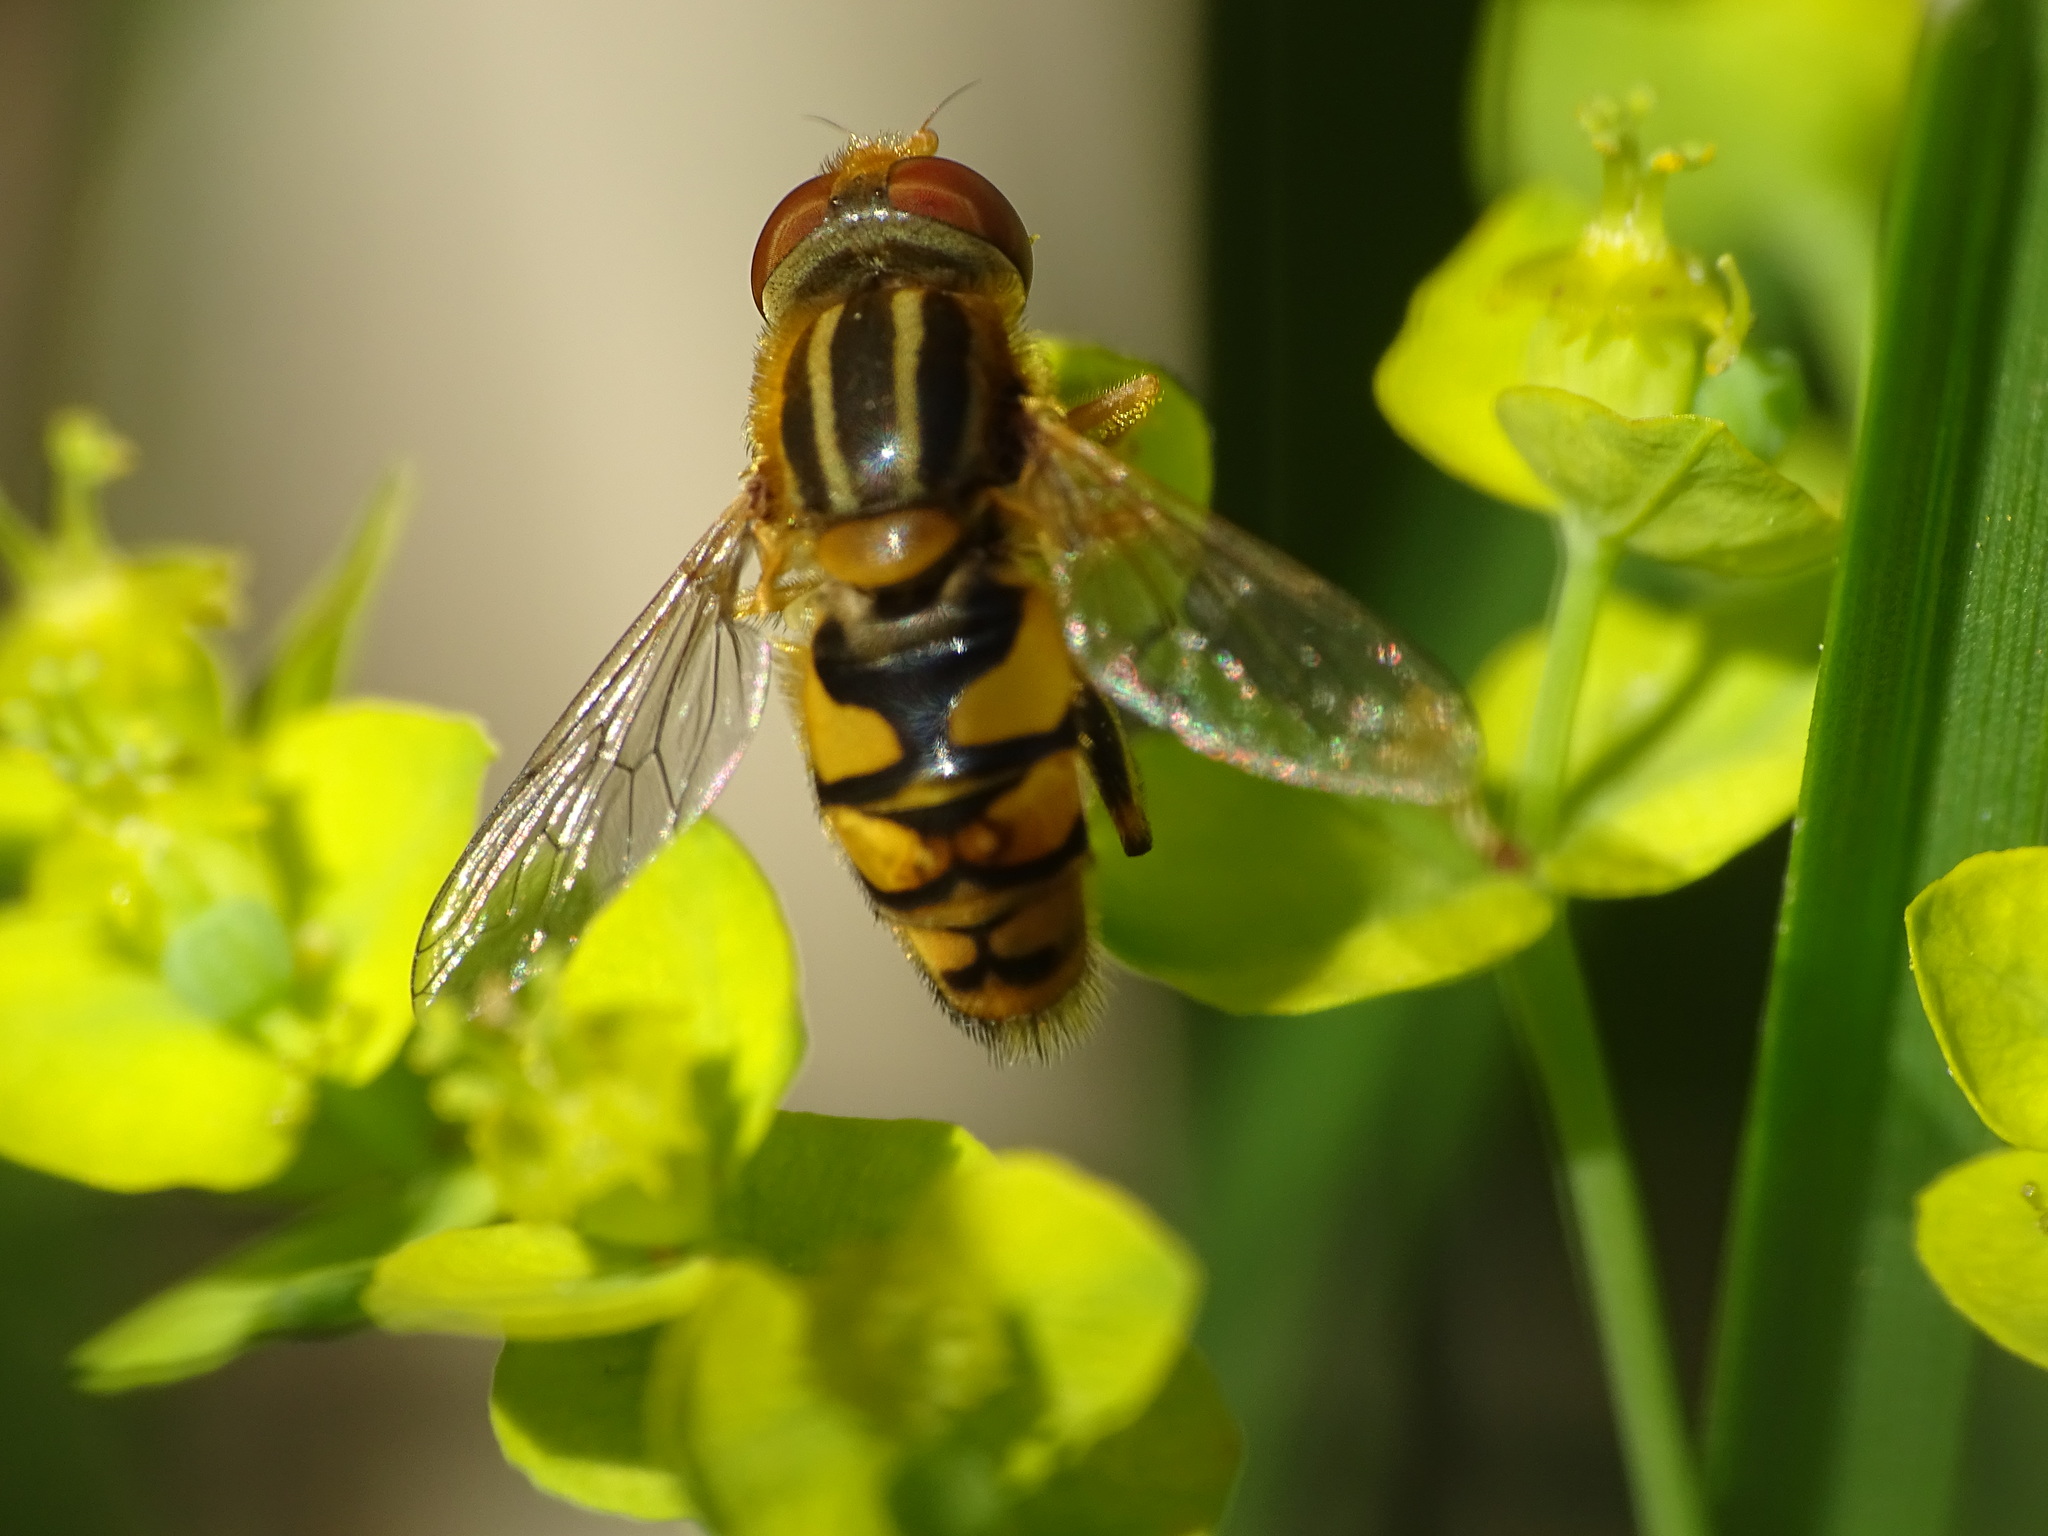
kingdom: Animalia
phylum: Arthropoda
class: Insecta
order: Diptera
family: Syrphidae
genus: Parhelophilus
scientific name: Parhelophilus integer
